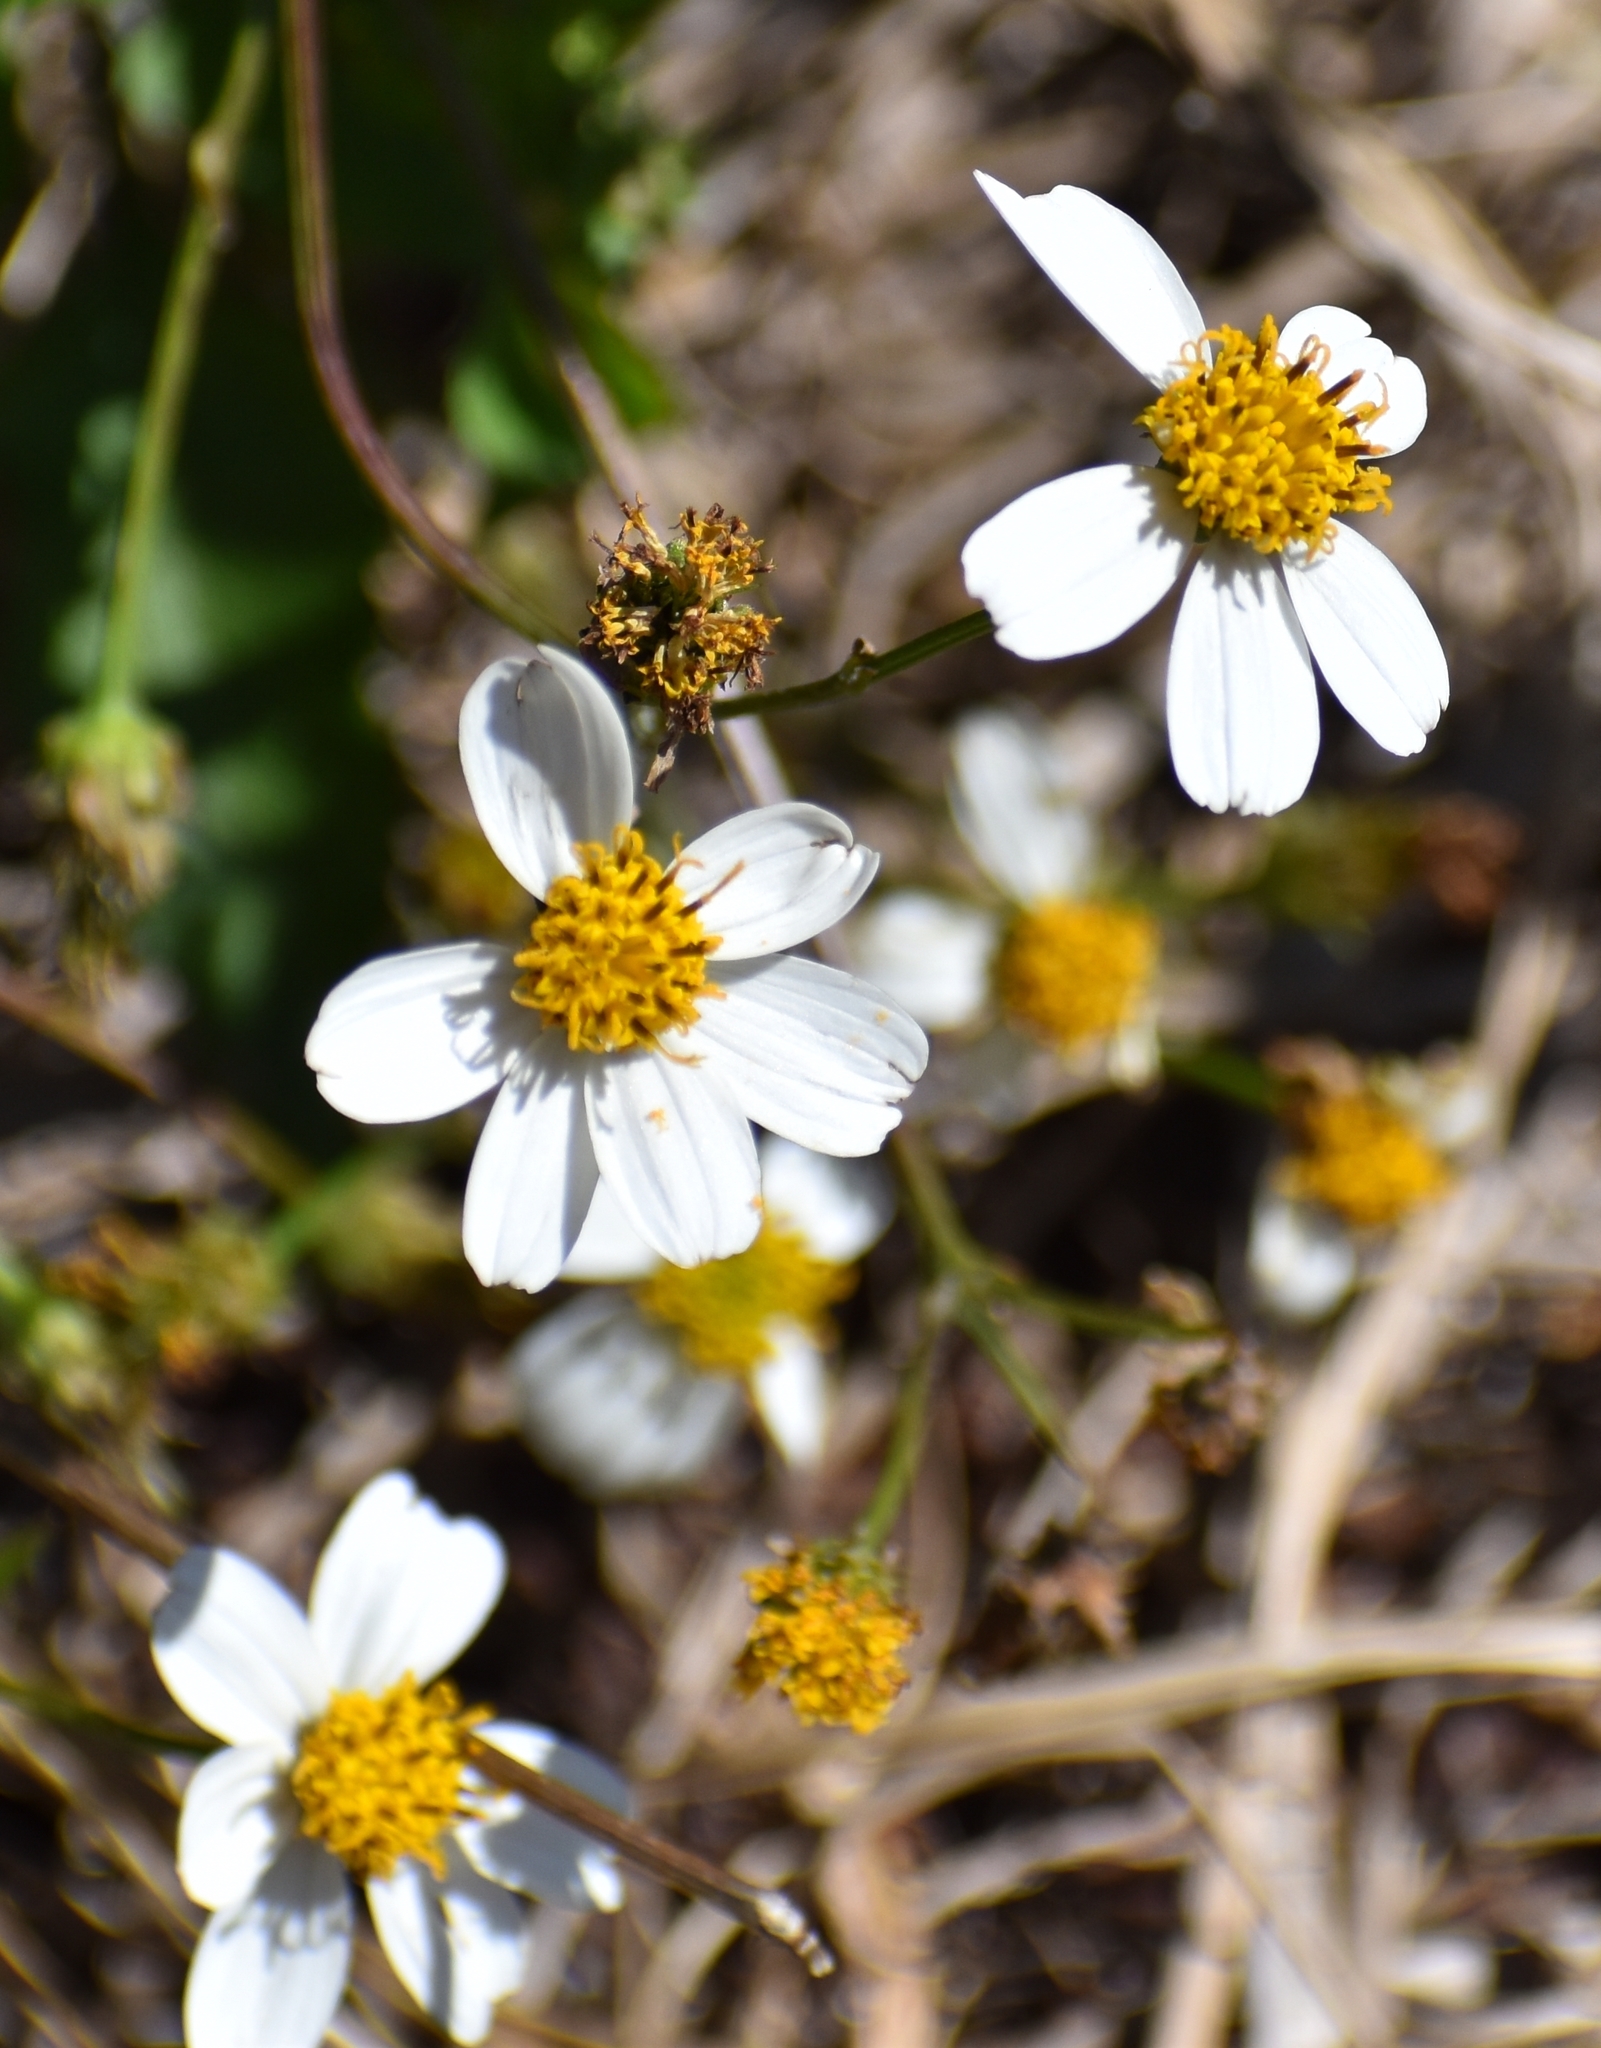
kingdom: Plantae
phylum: Tracheophyta
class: Magnoliopsida
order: Asterales
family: Asteraceae
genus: Bidens
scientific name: Bidens alba
